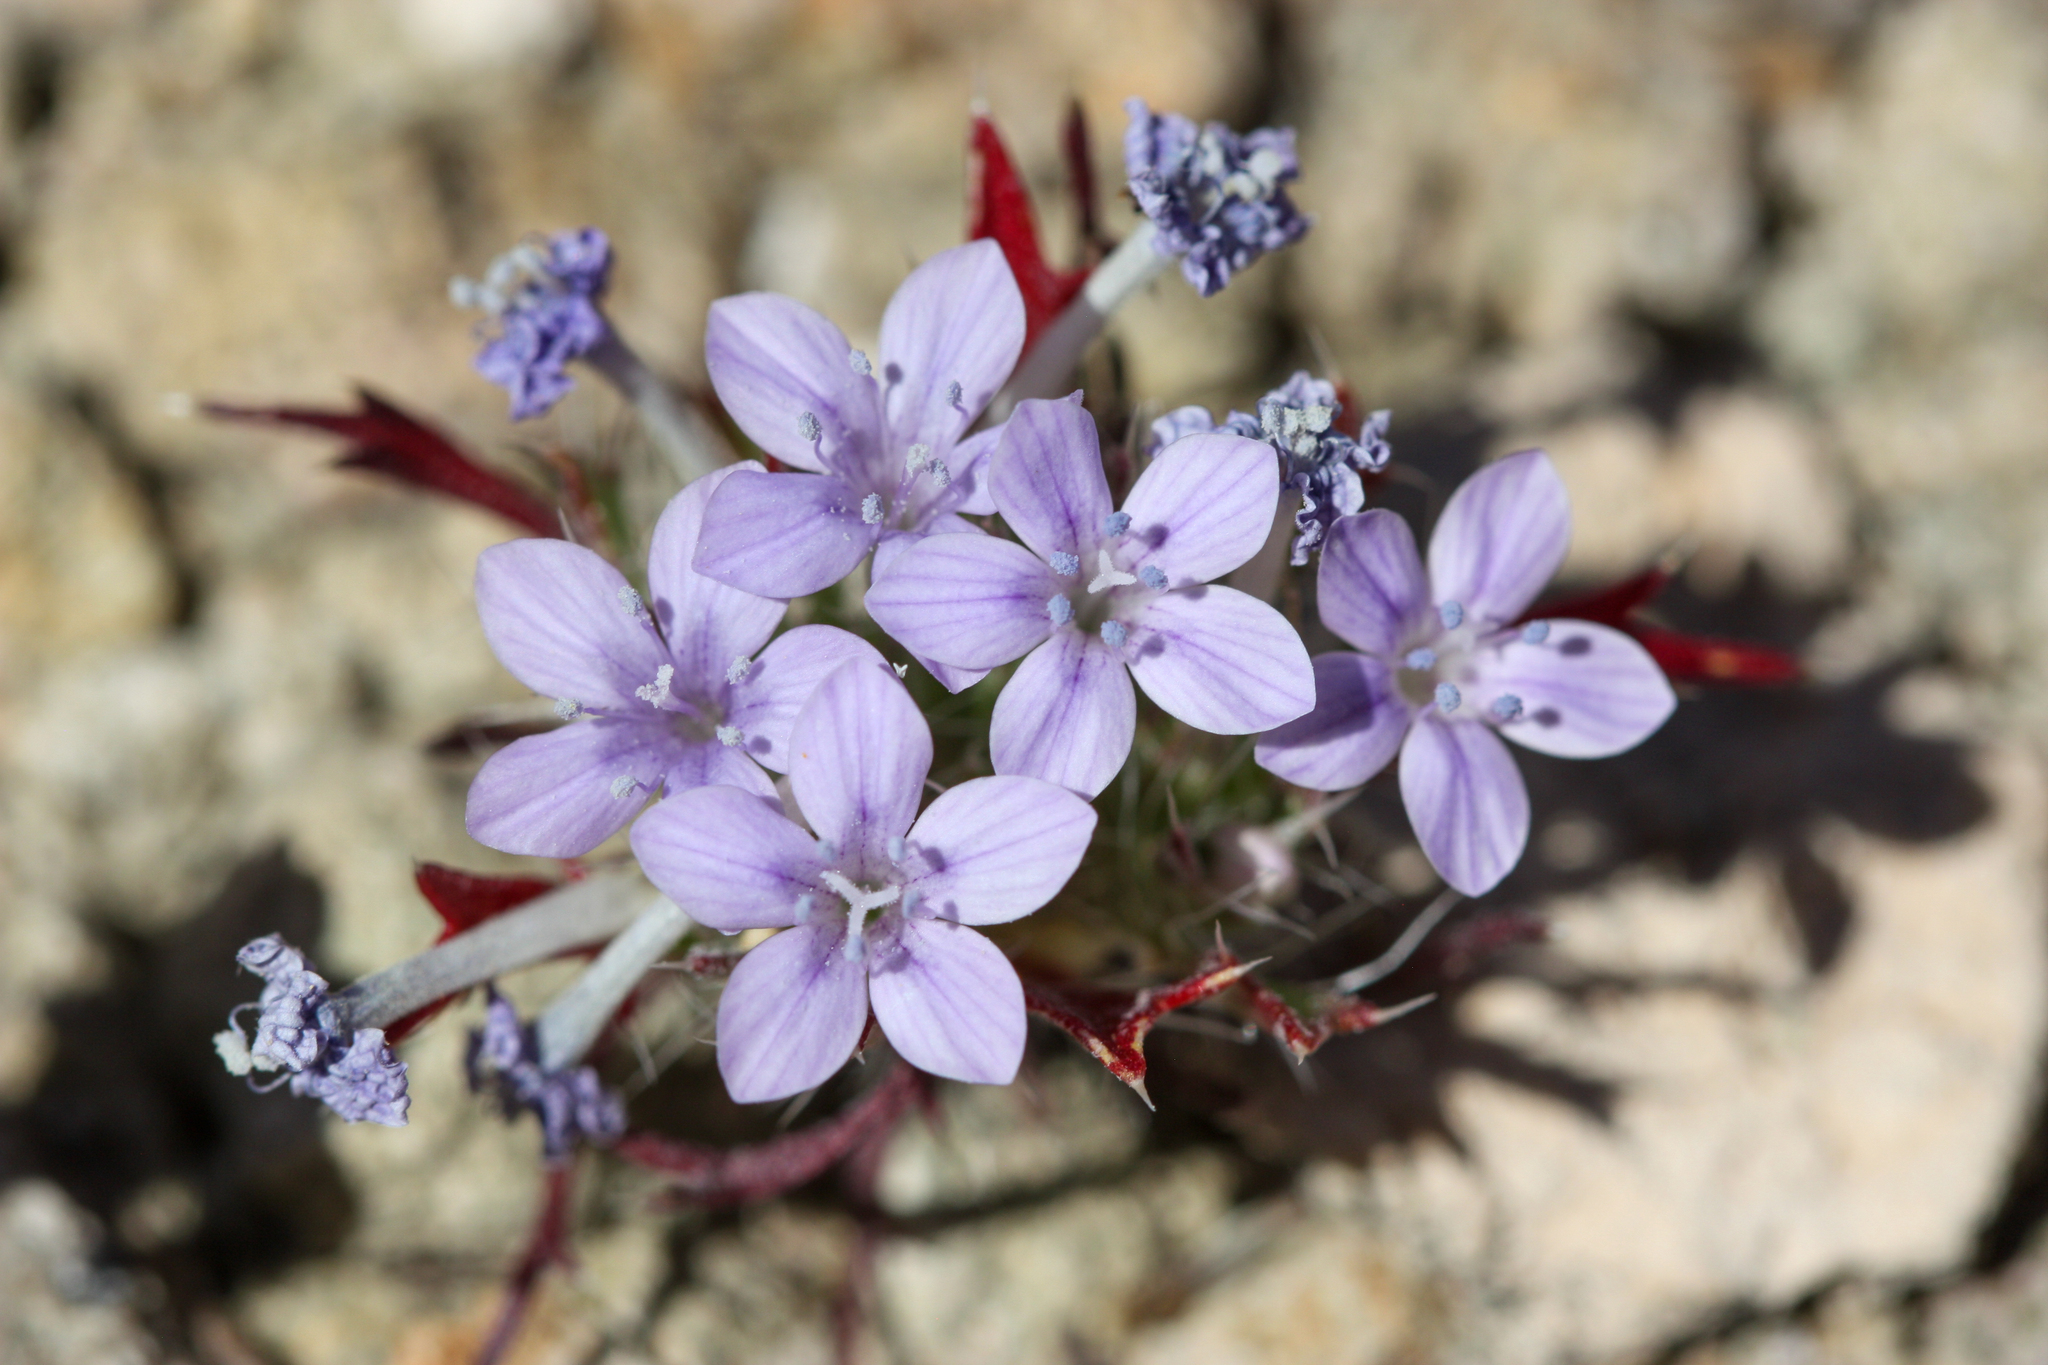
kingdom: Plantae
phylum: Tracheophyta
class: Magnoliopsida
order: Ericales
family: Polemoniaceae
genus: Langloisia
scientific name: Langloisia setosissima
